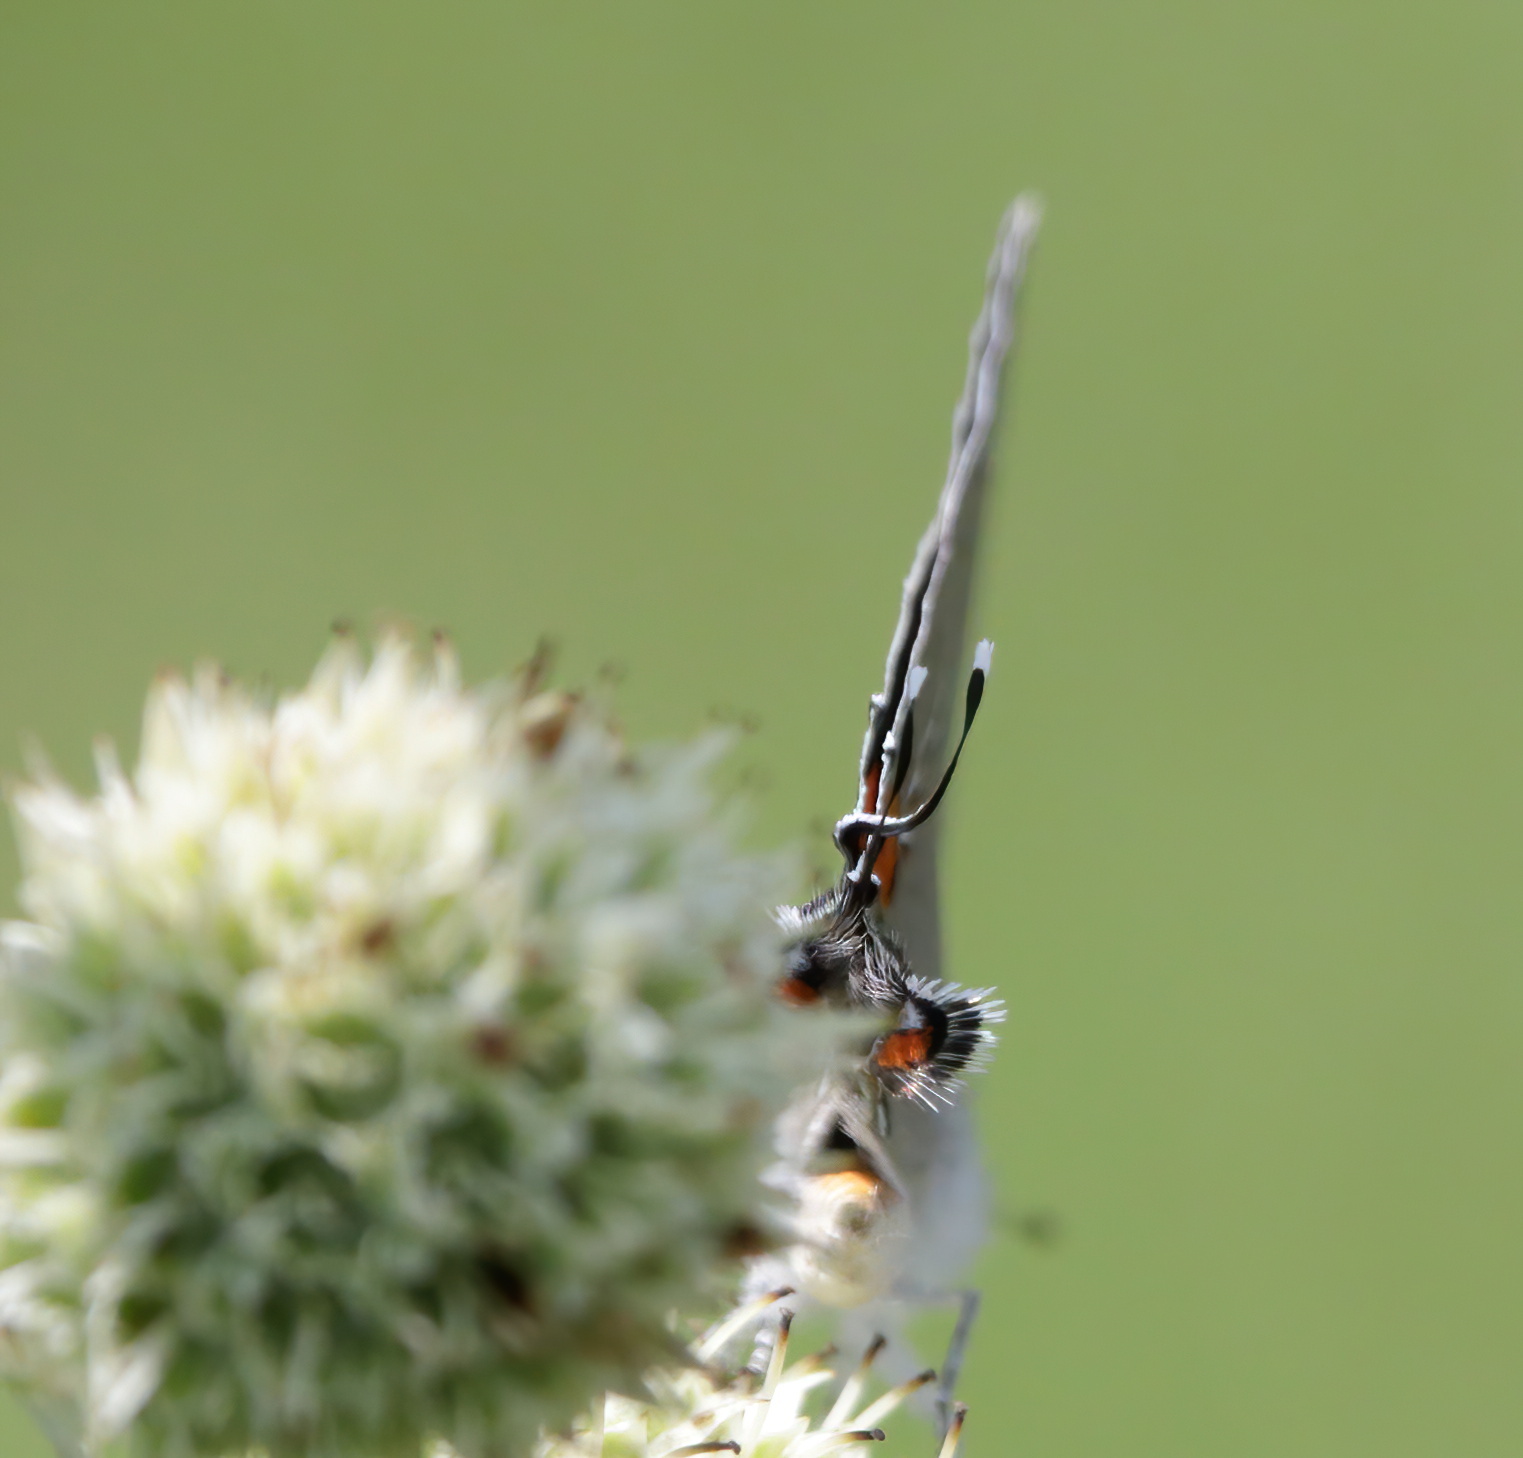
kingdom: Animalia
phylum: Arthropoda
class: Insecta
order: Lepidoptera
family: Lycaenidae
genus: Strymon
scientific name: Strymon melinus
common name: Gray hairstreak
